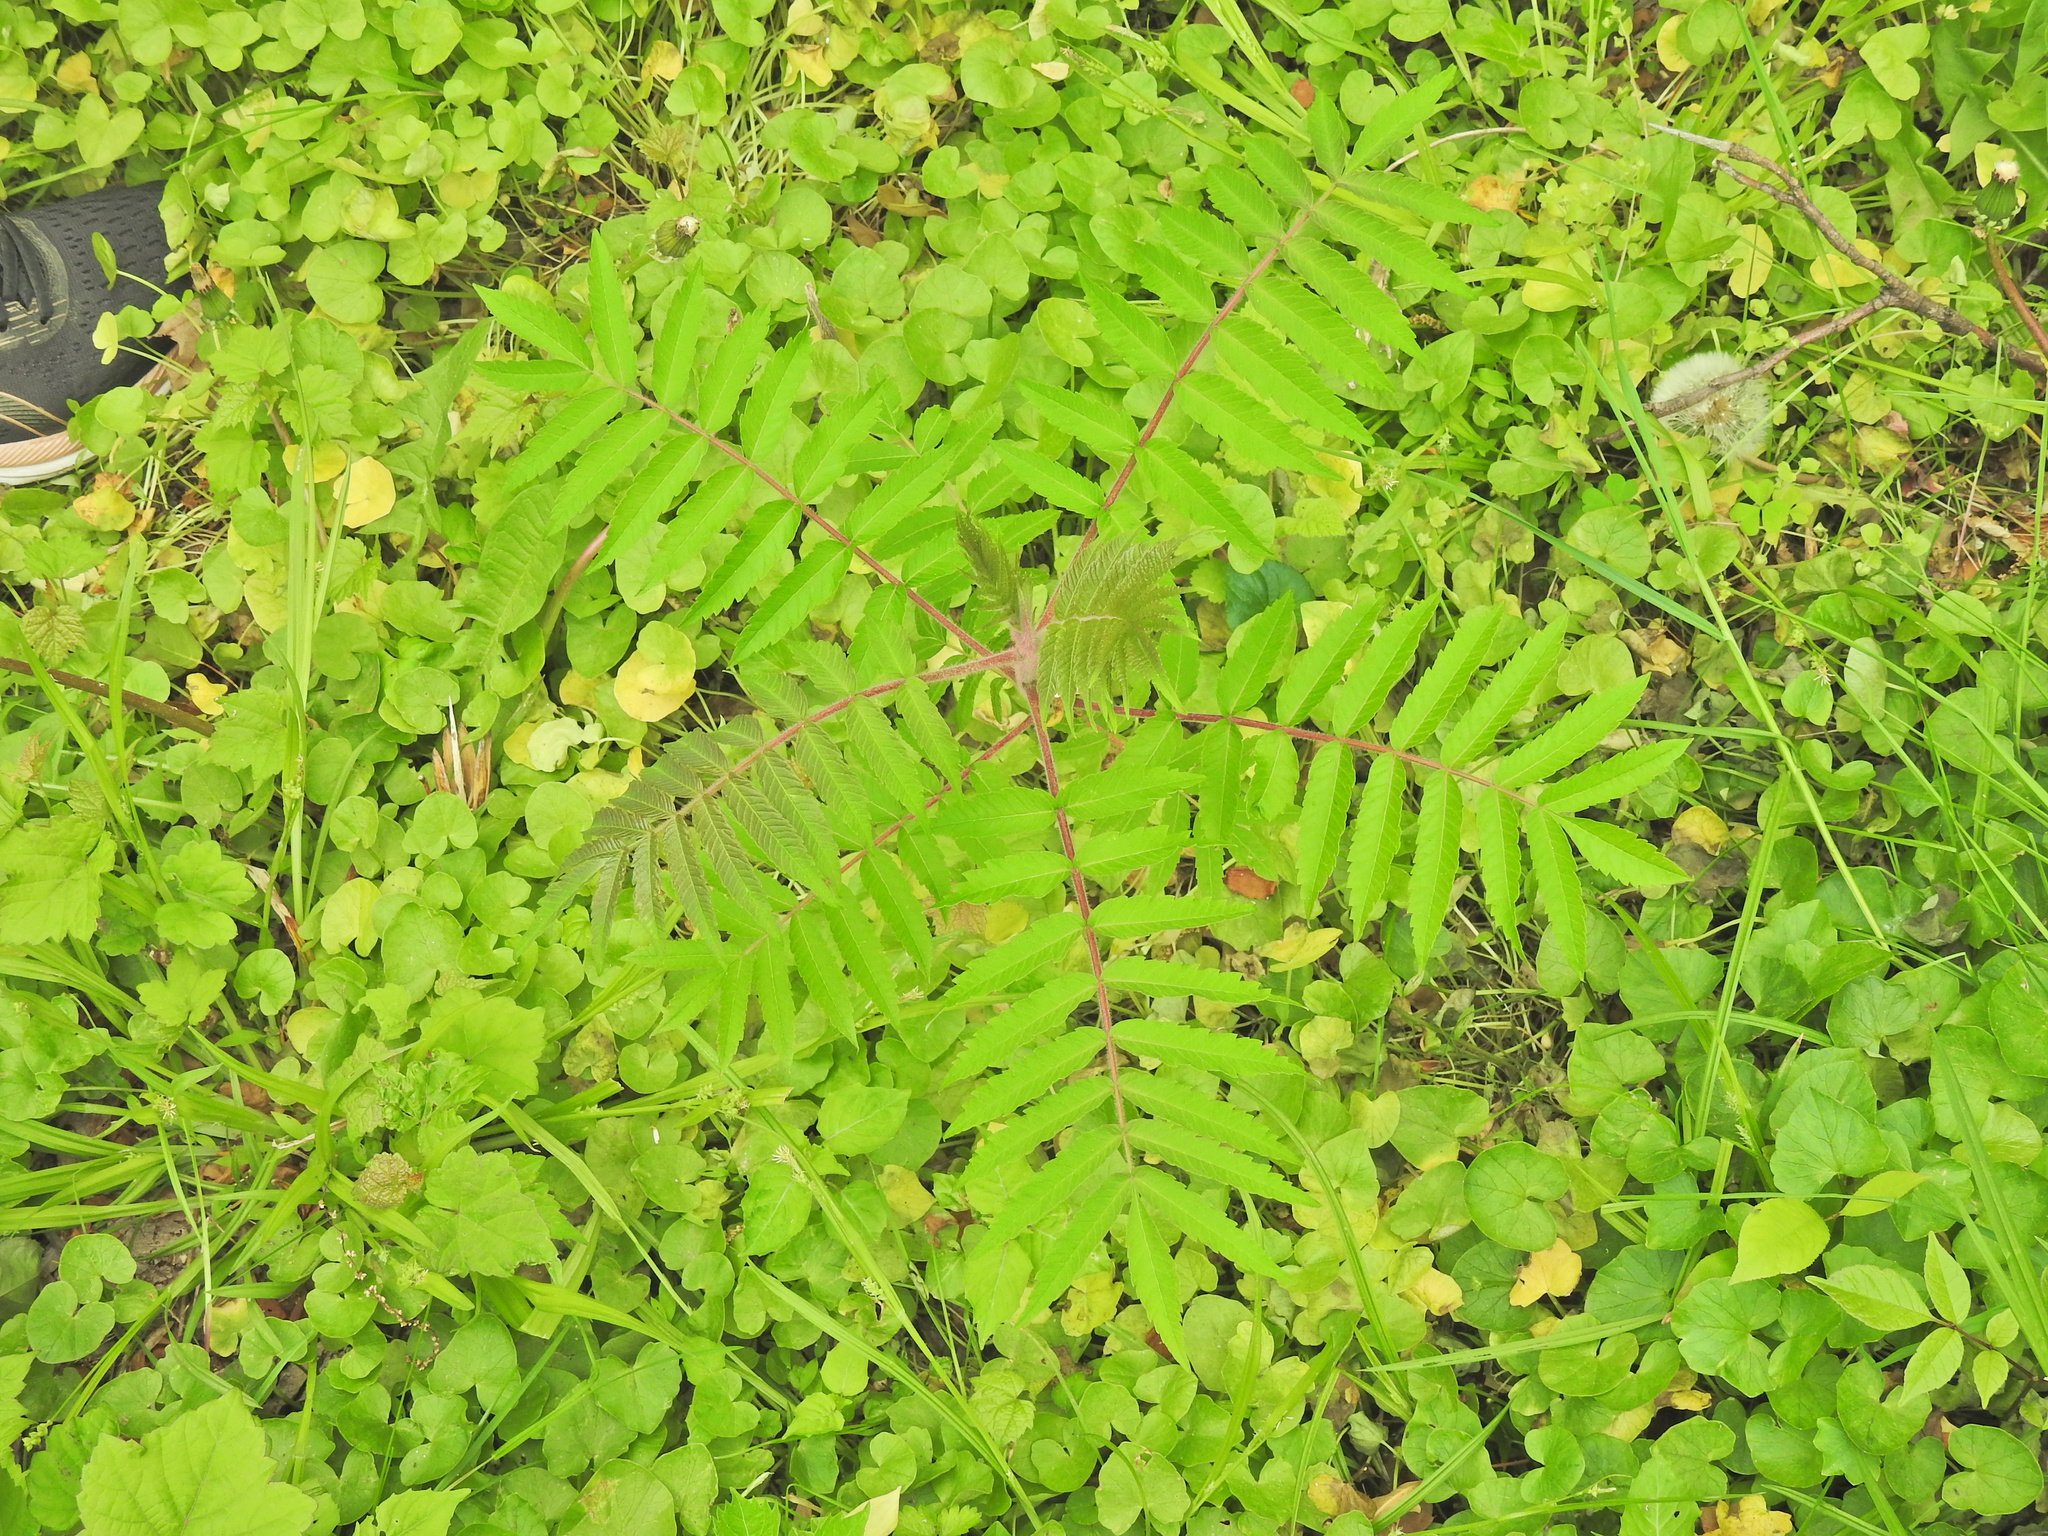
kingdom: Plantae
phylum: Tracheophyta
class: Magnoliopsida
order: Sapindales
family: Anacardiaceae
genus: Rhus
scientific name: Rhus typhina
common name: Staghorn sumac
